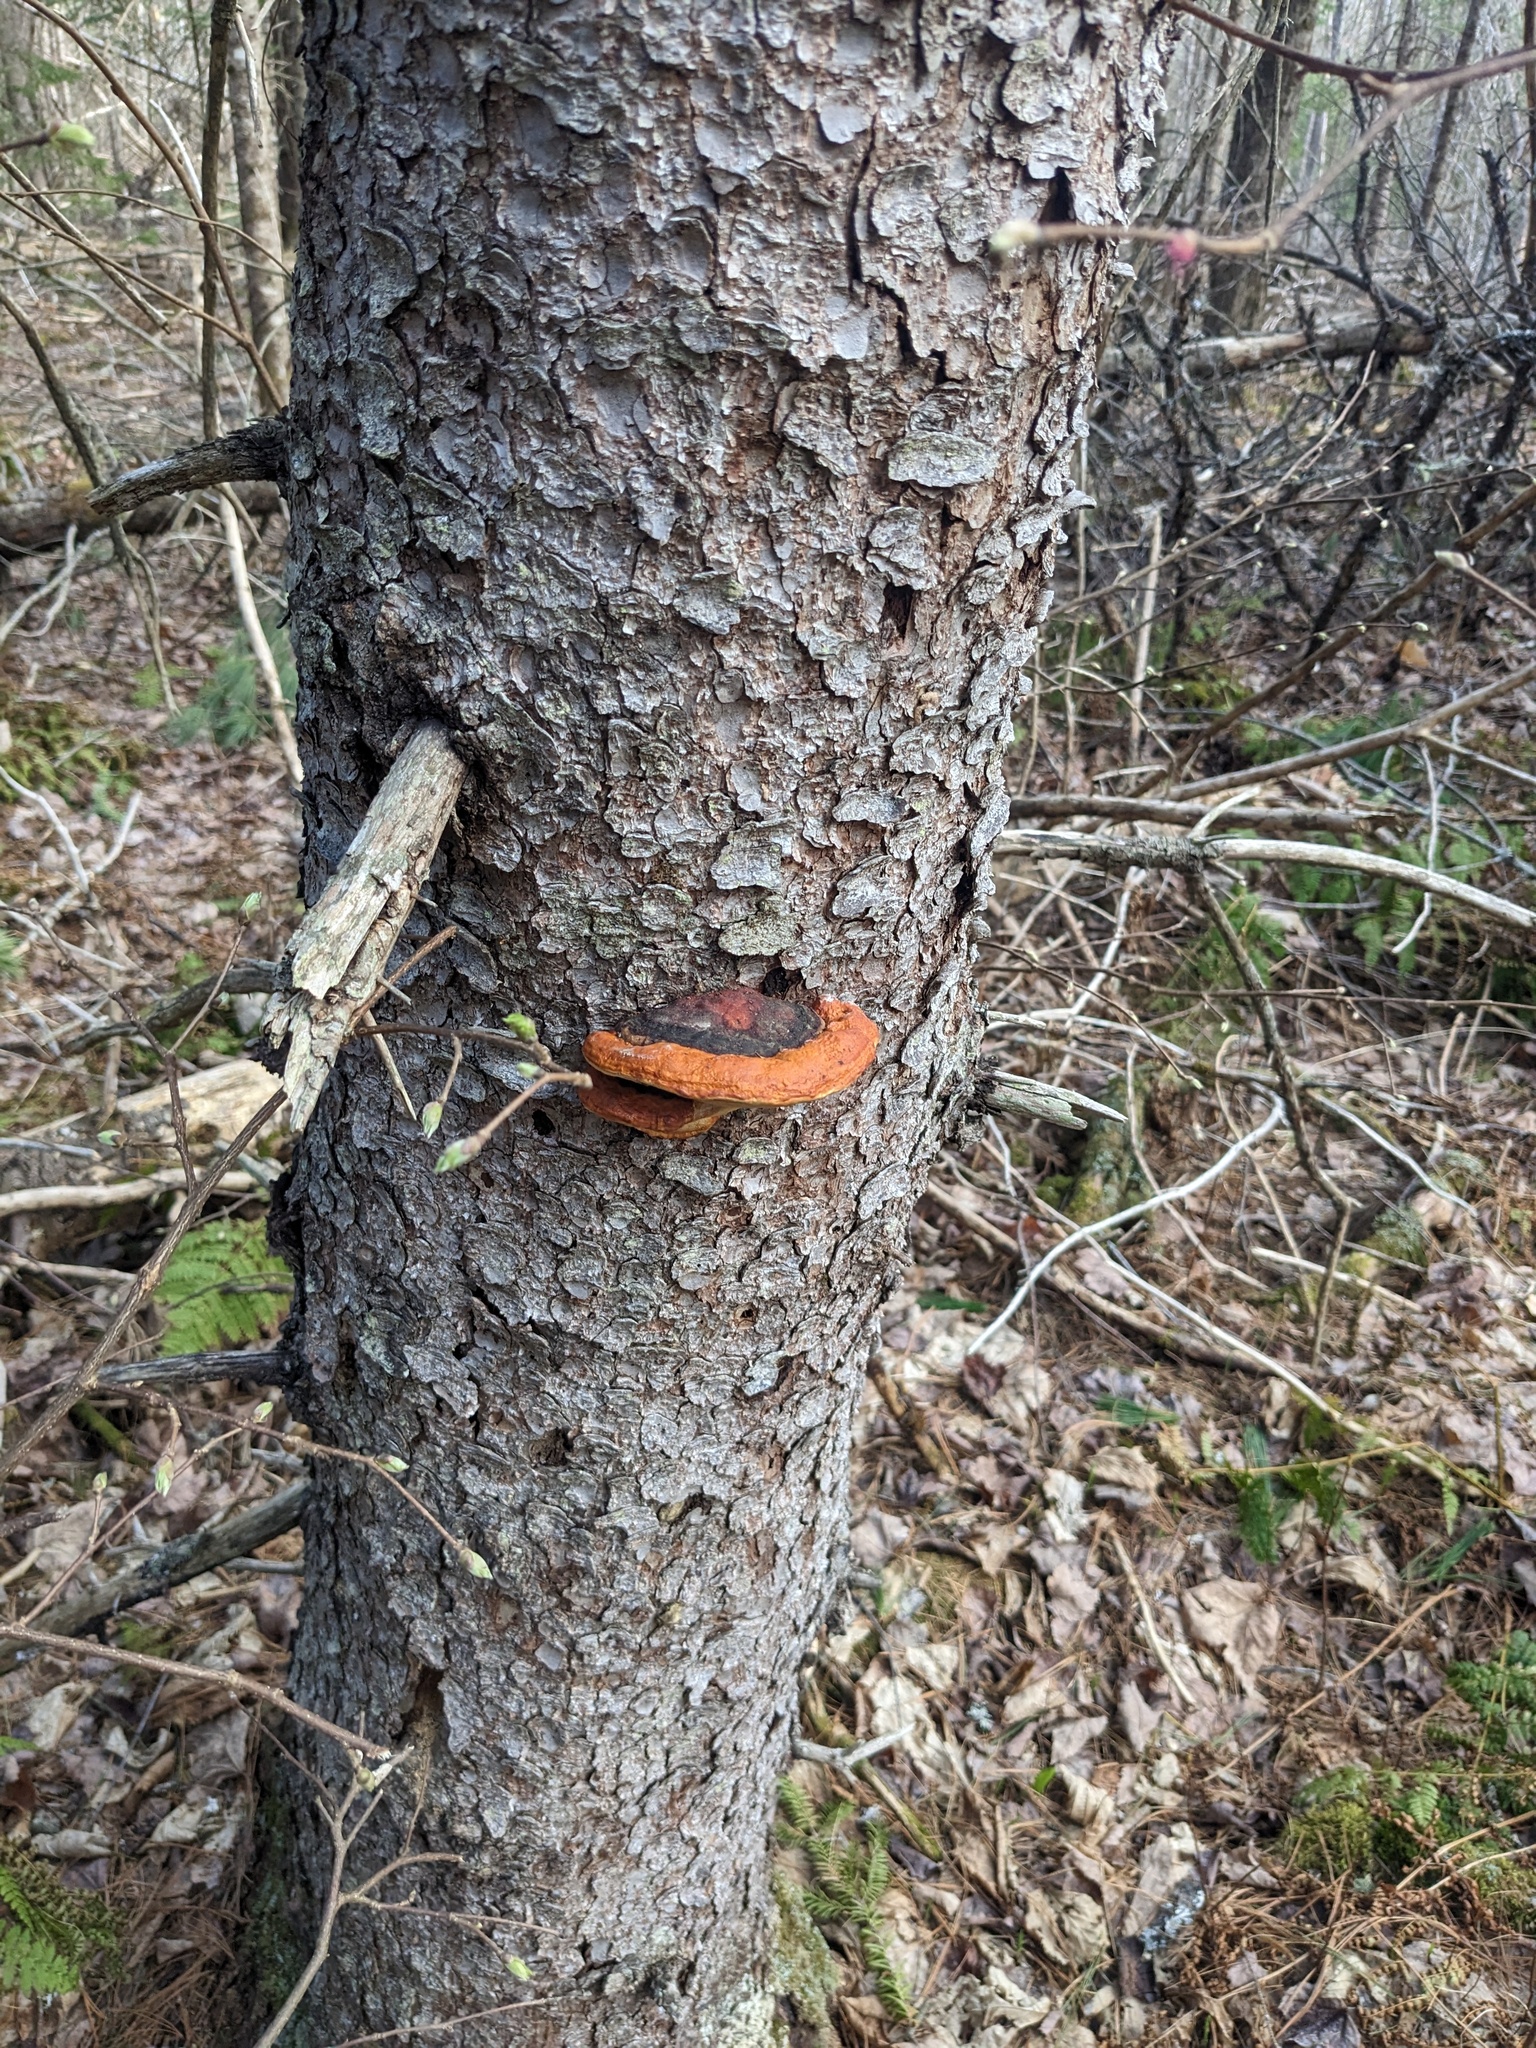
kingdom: Fungi
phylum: Basidiomycota
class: Agaricomycetes
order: Polyporales
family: Fomitopsidaceae
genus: Fomitopsis
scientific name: Fomitopsis mounceae
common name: Northern red belt
